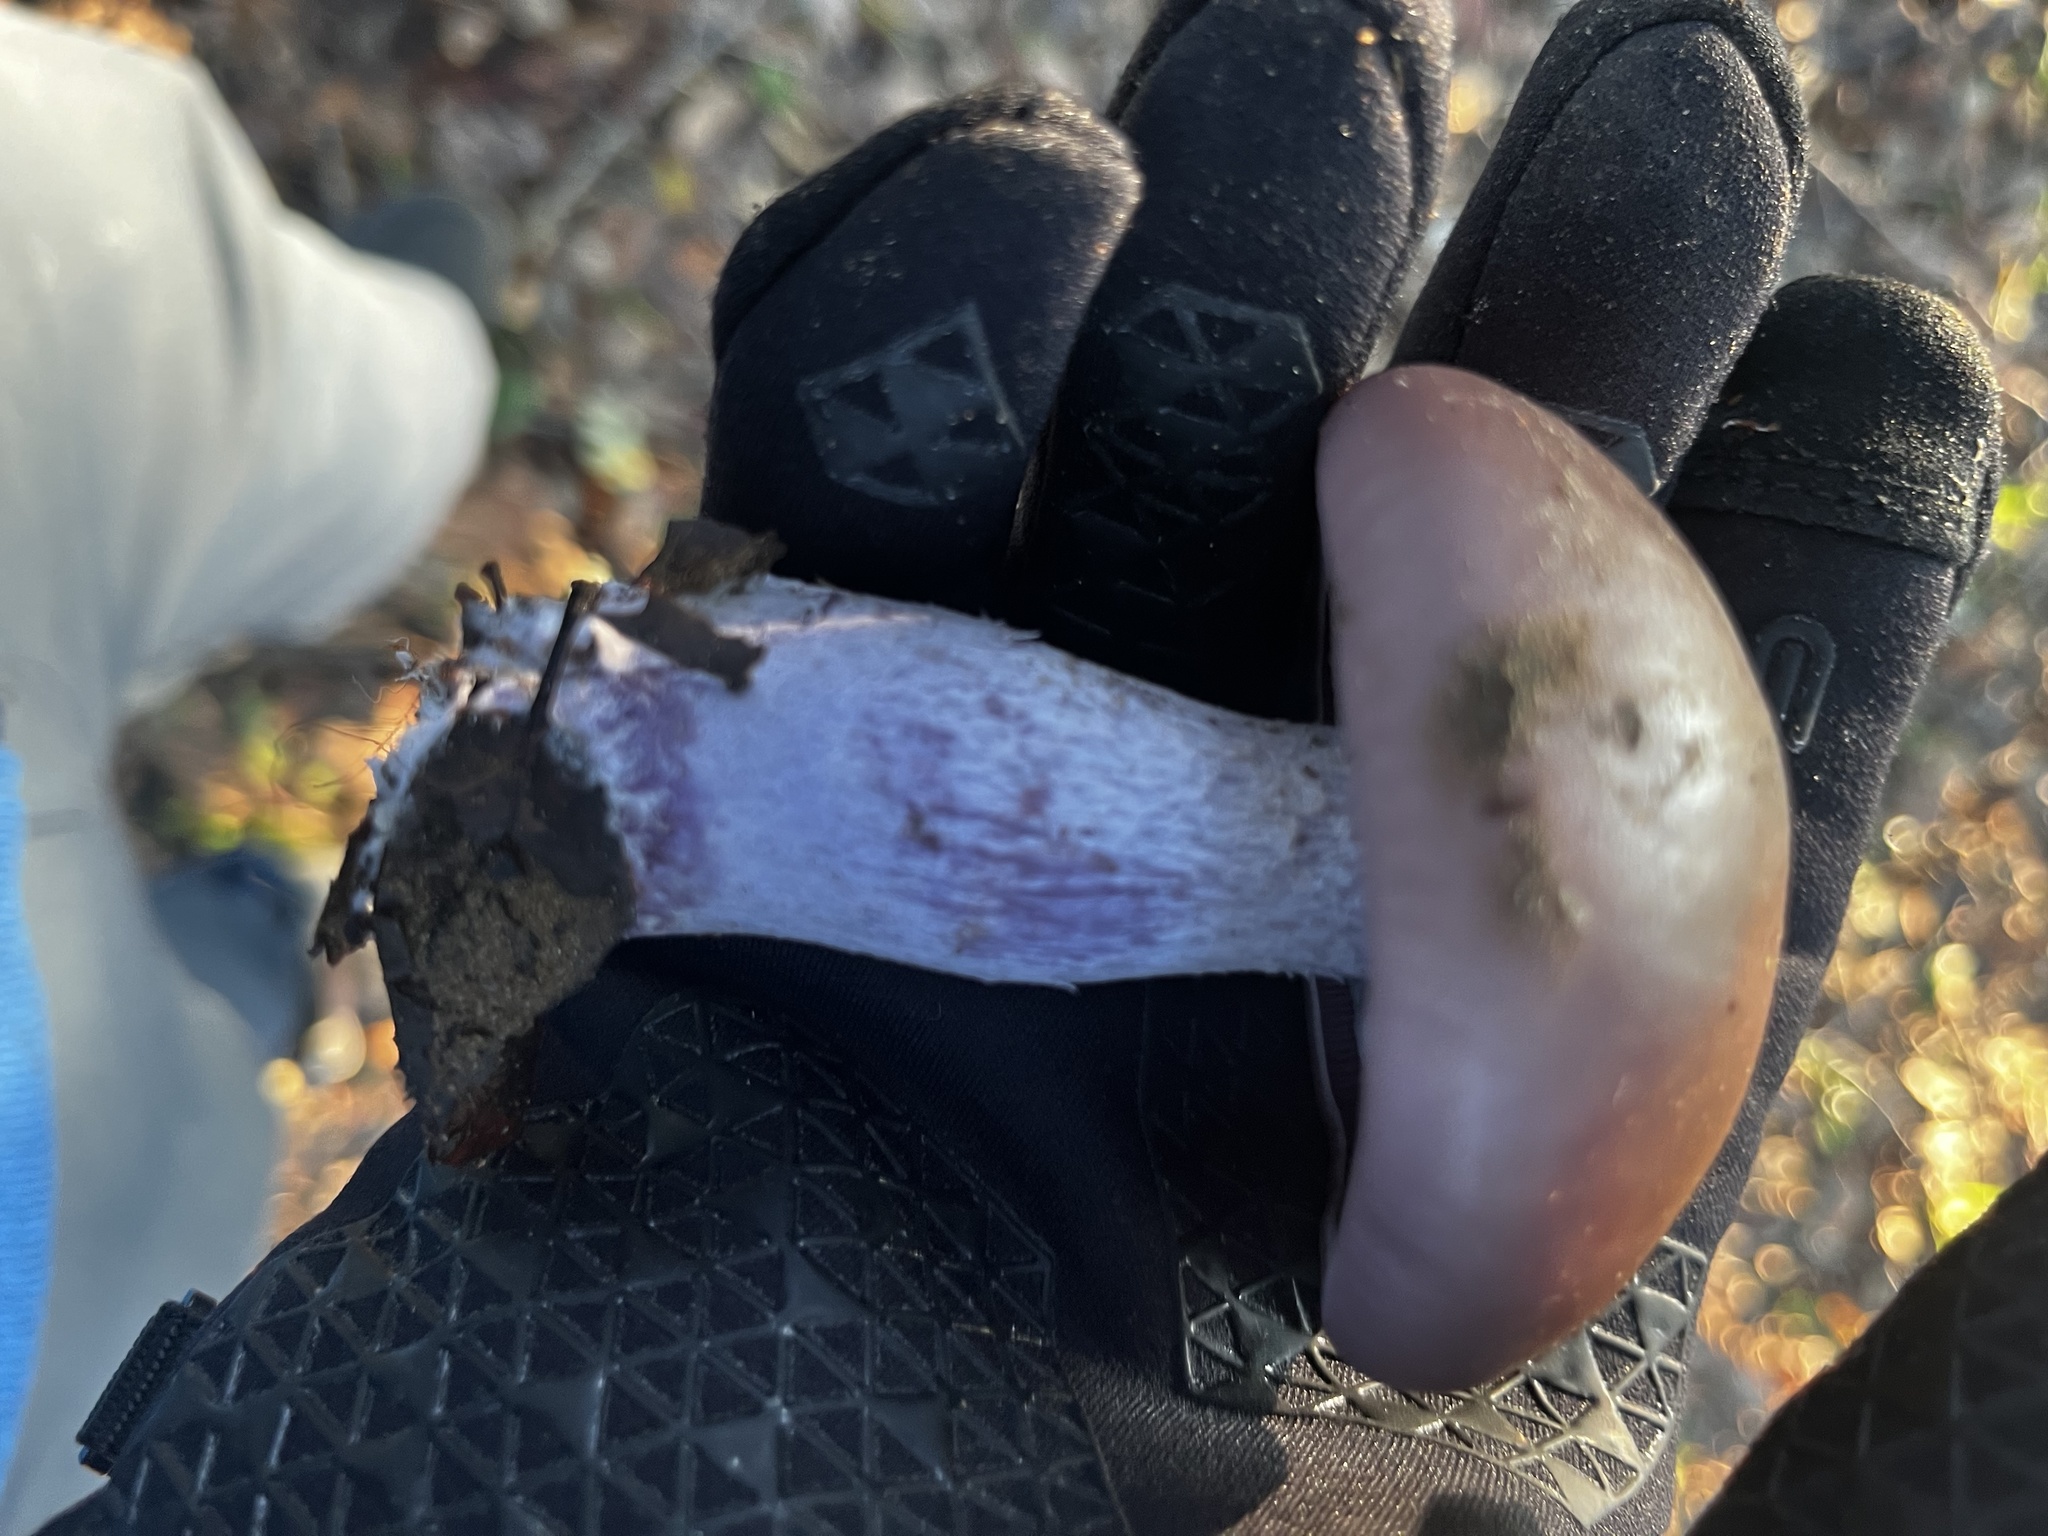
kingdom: Fungi
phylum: Basidiomycota
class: Agaricomycetes
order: Agaricales
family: Tricholomataceae
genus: Collybia
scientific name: Collybia
